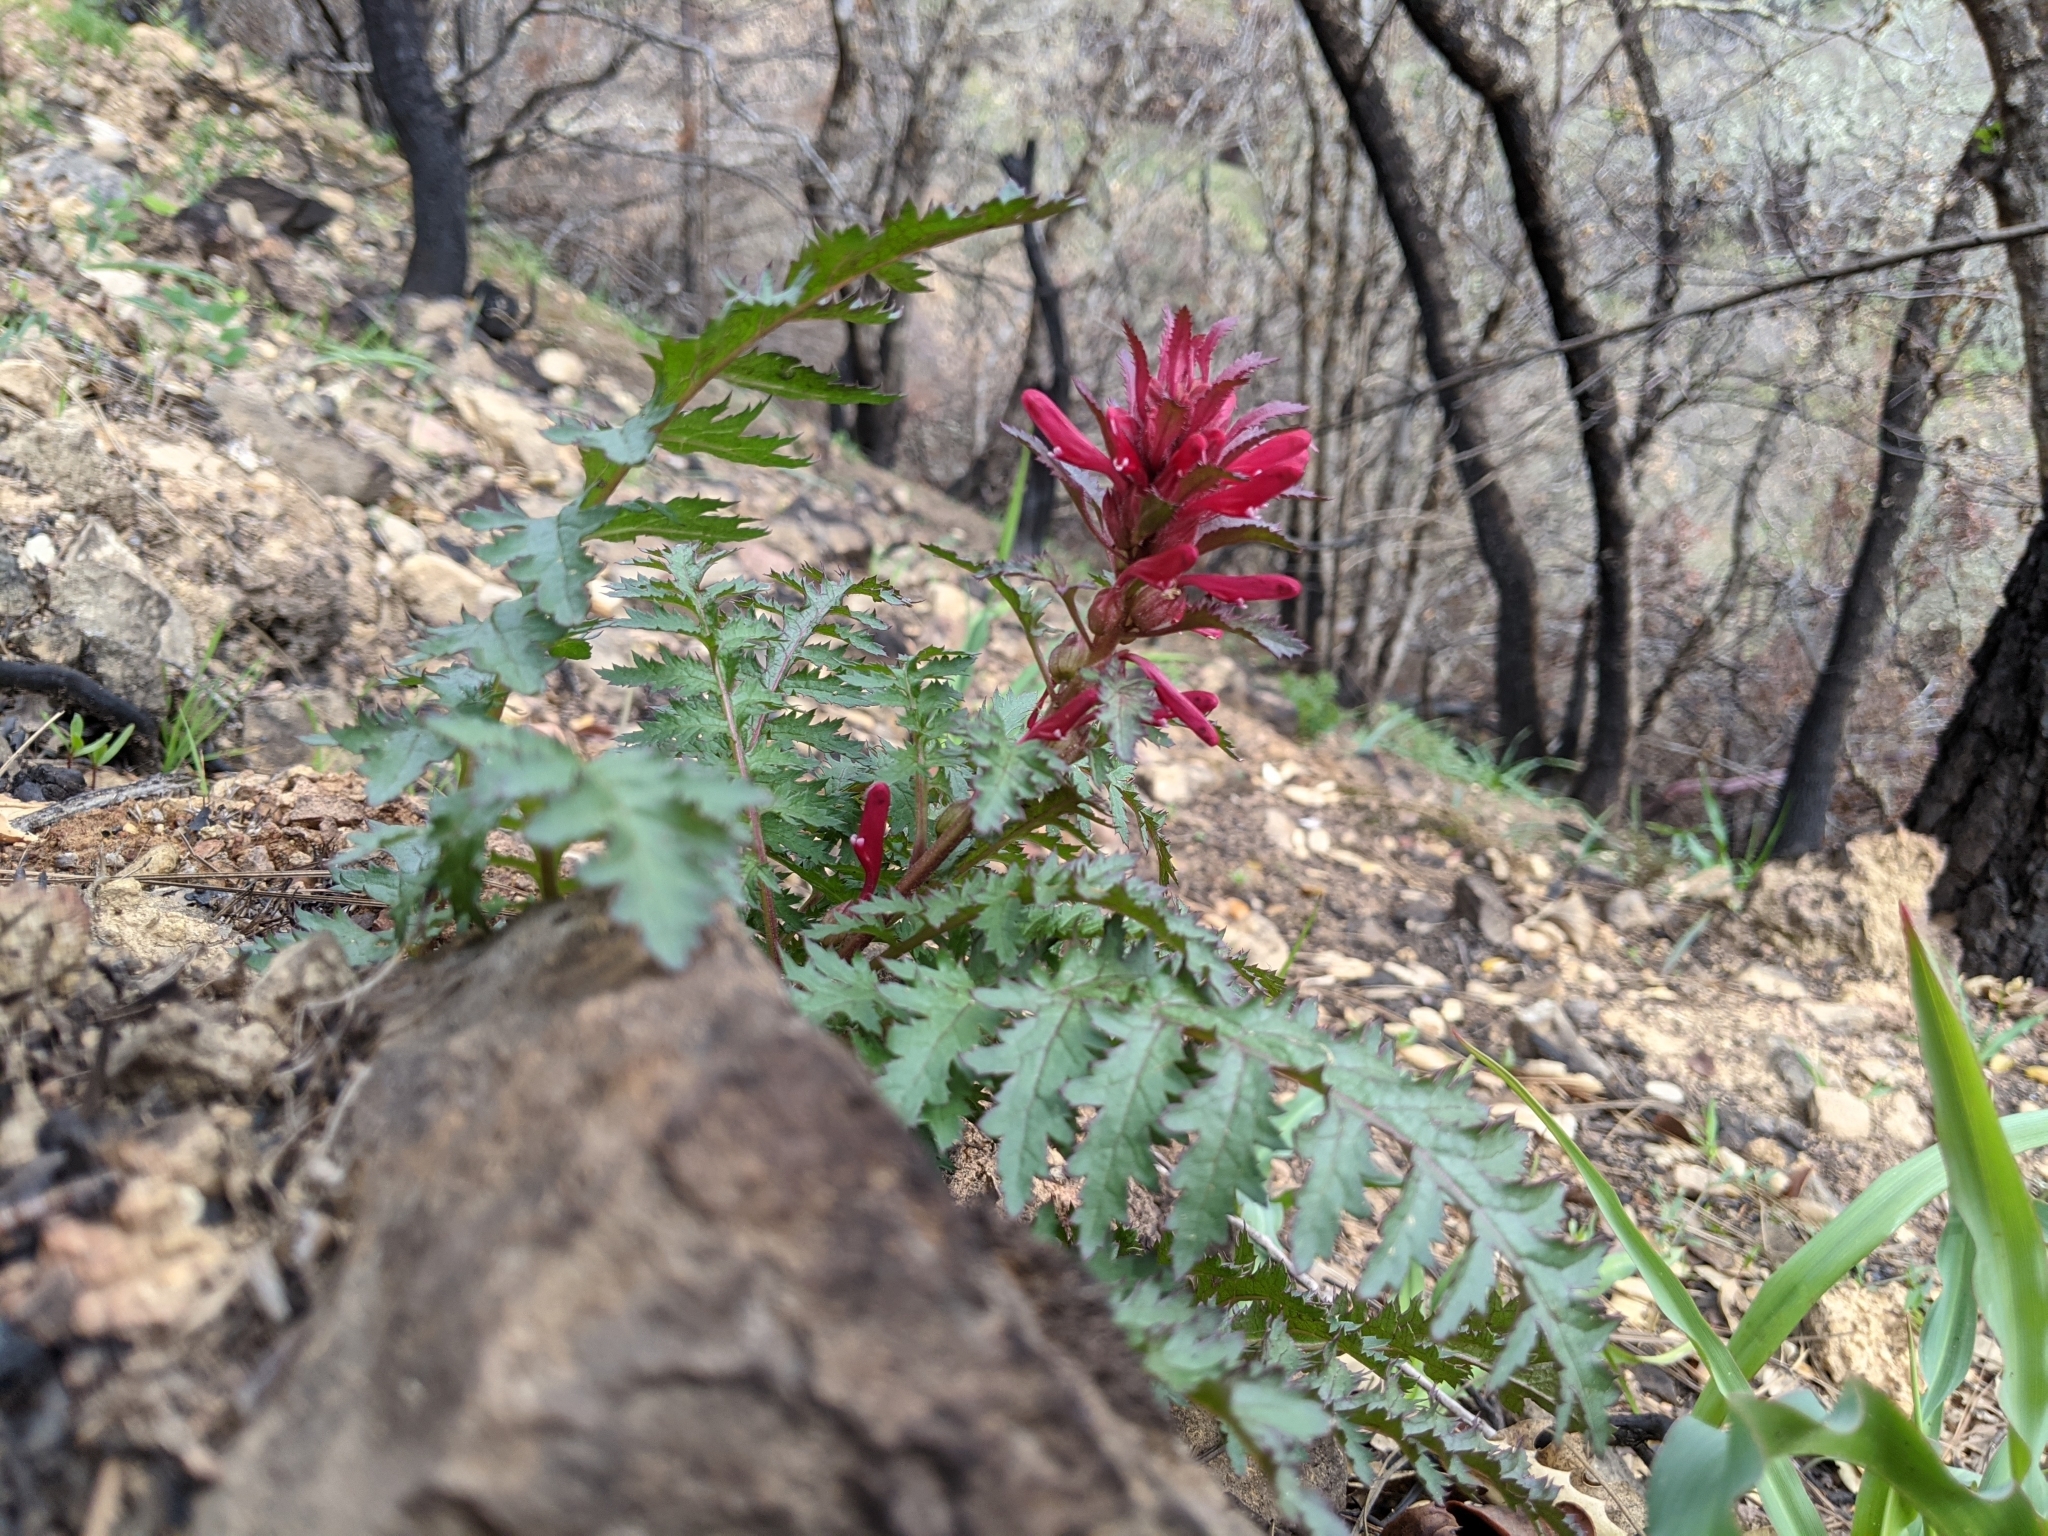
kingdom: Plantae
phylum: Tracheophyta
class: Magnoliopsida
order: Lamiales
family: Orobanchaceae
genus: Pedicularis
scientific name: Pedicularis densiflora
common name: Indian warrior
